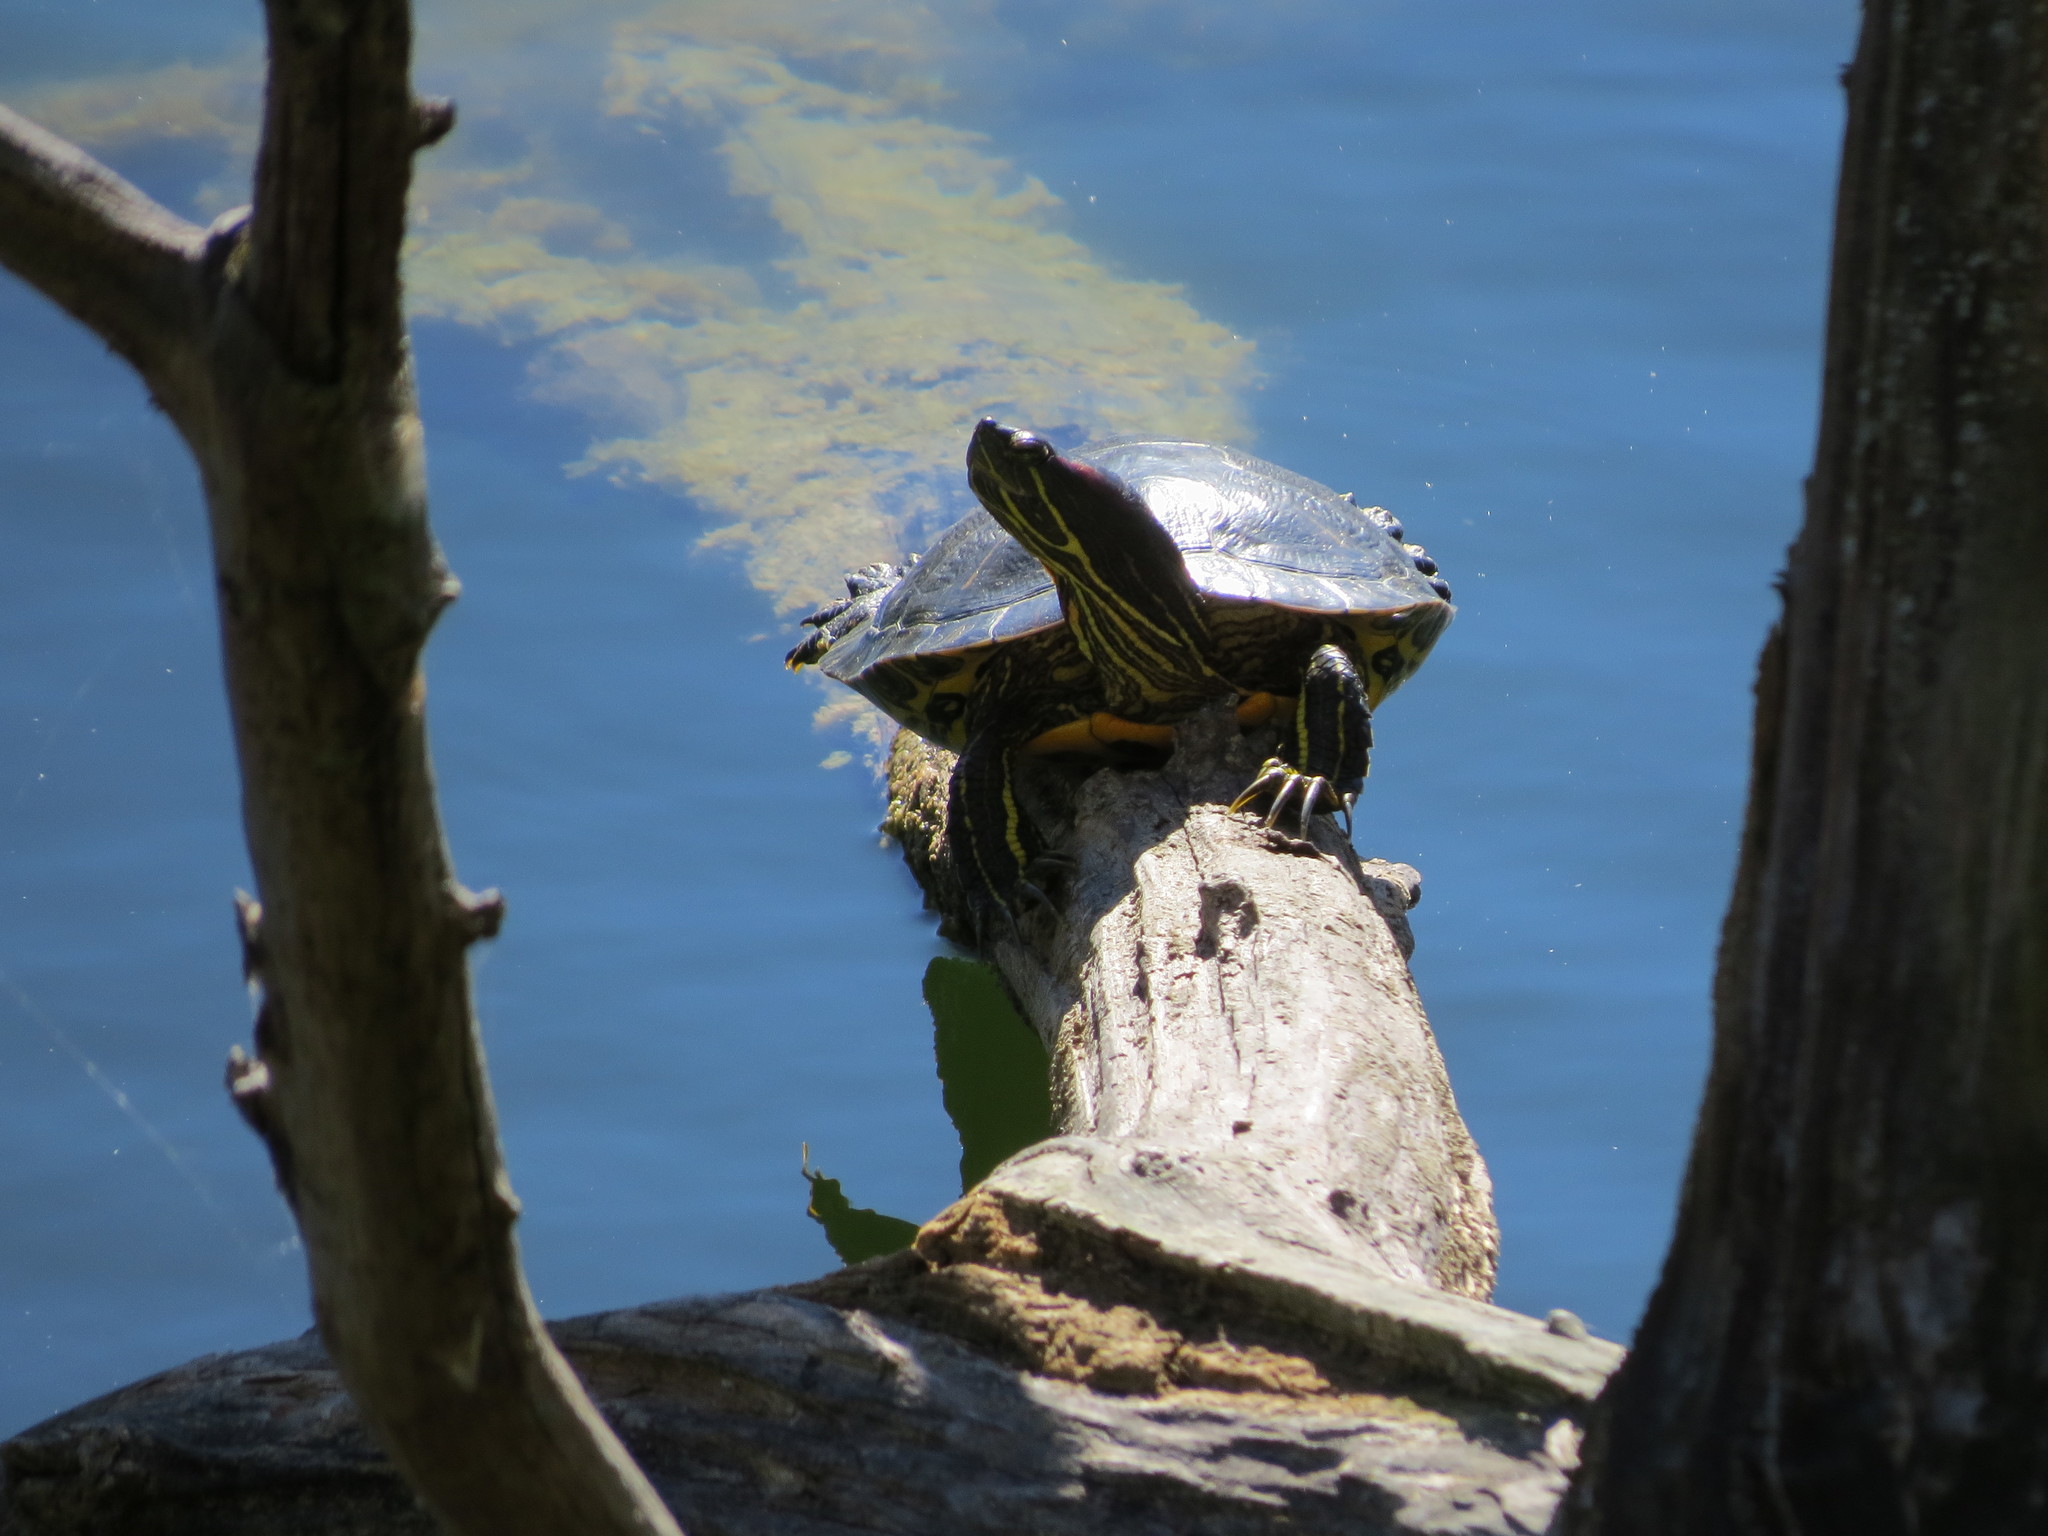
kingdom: Animalia
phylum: Chordata
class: Testudines
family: Emydidae
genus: Trachemys
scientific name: Trachemys scripta
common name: Slider
